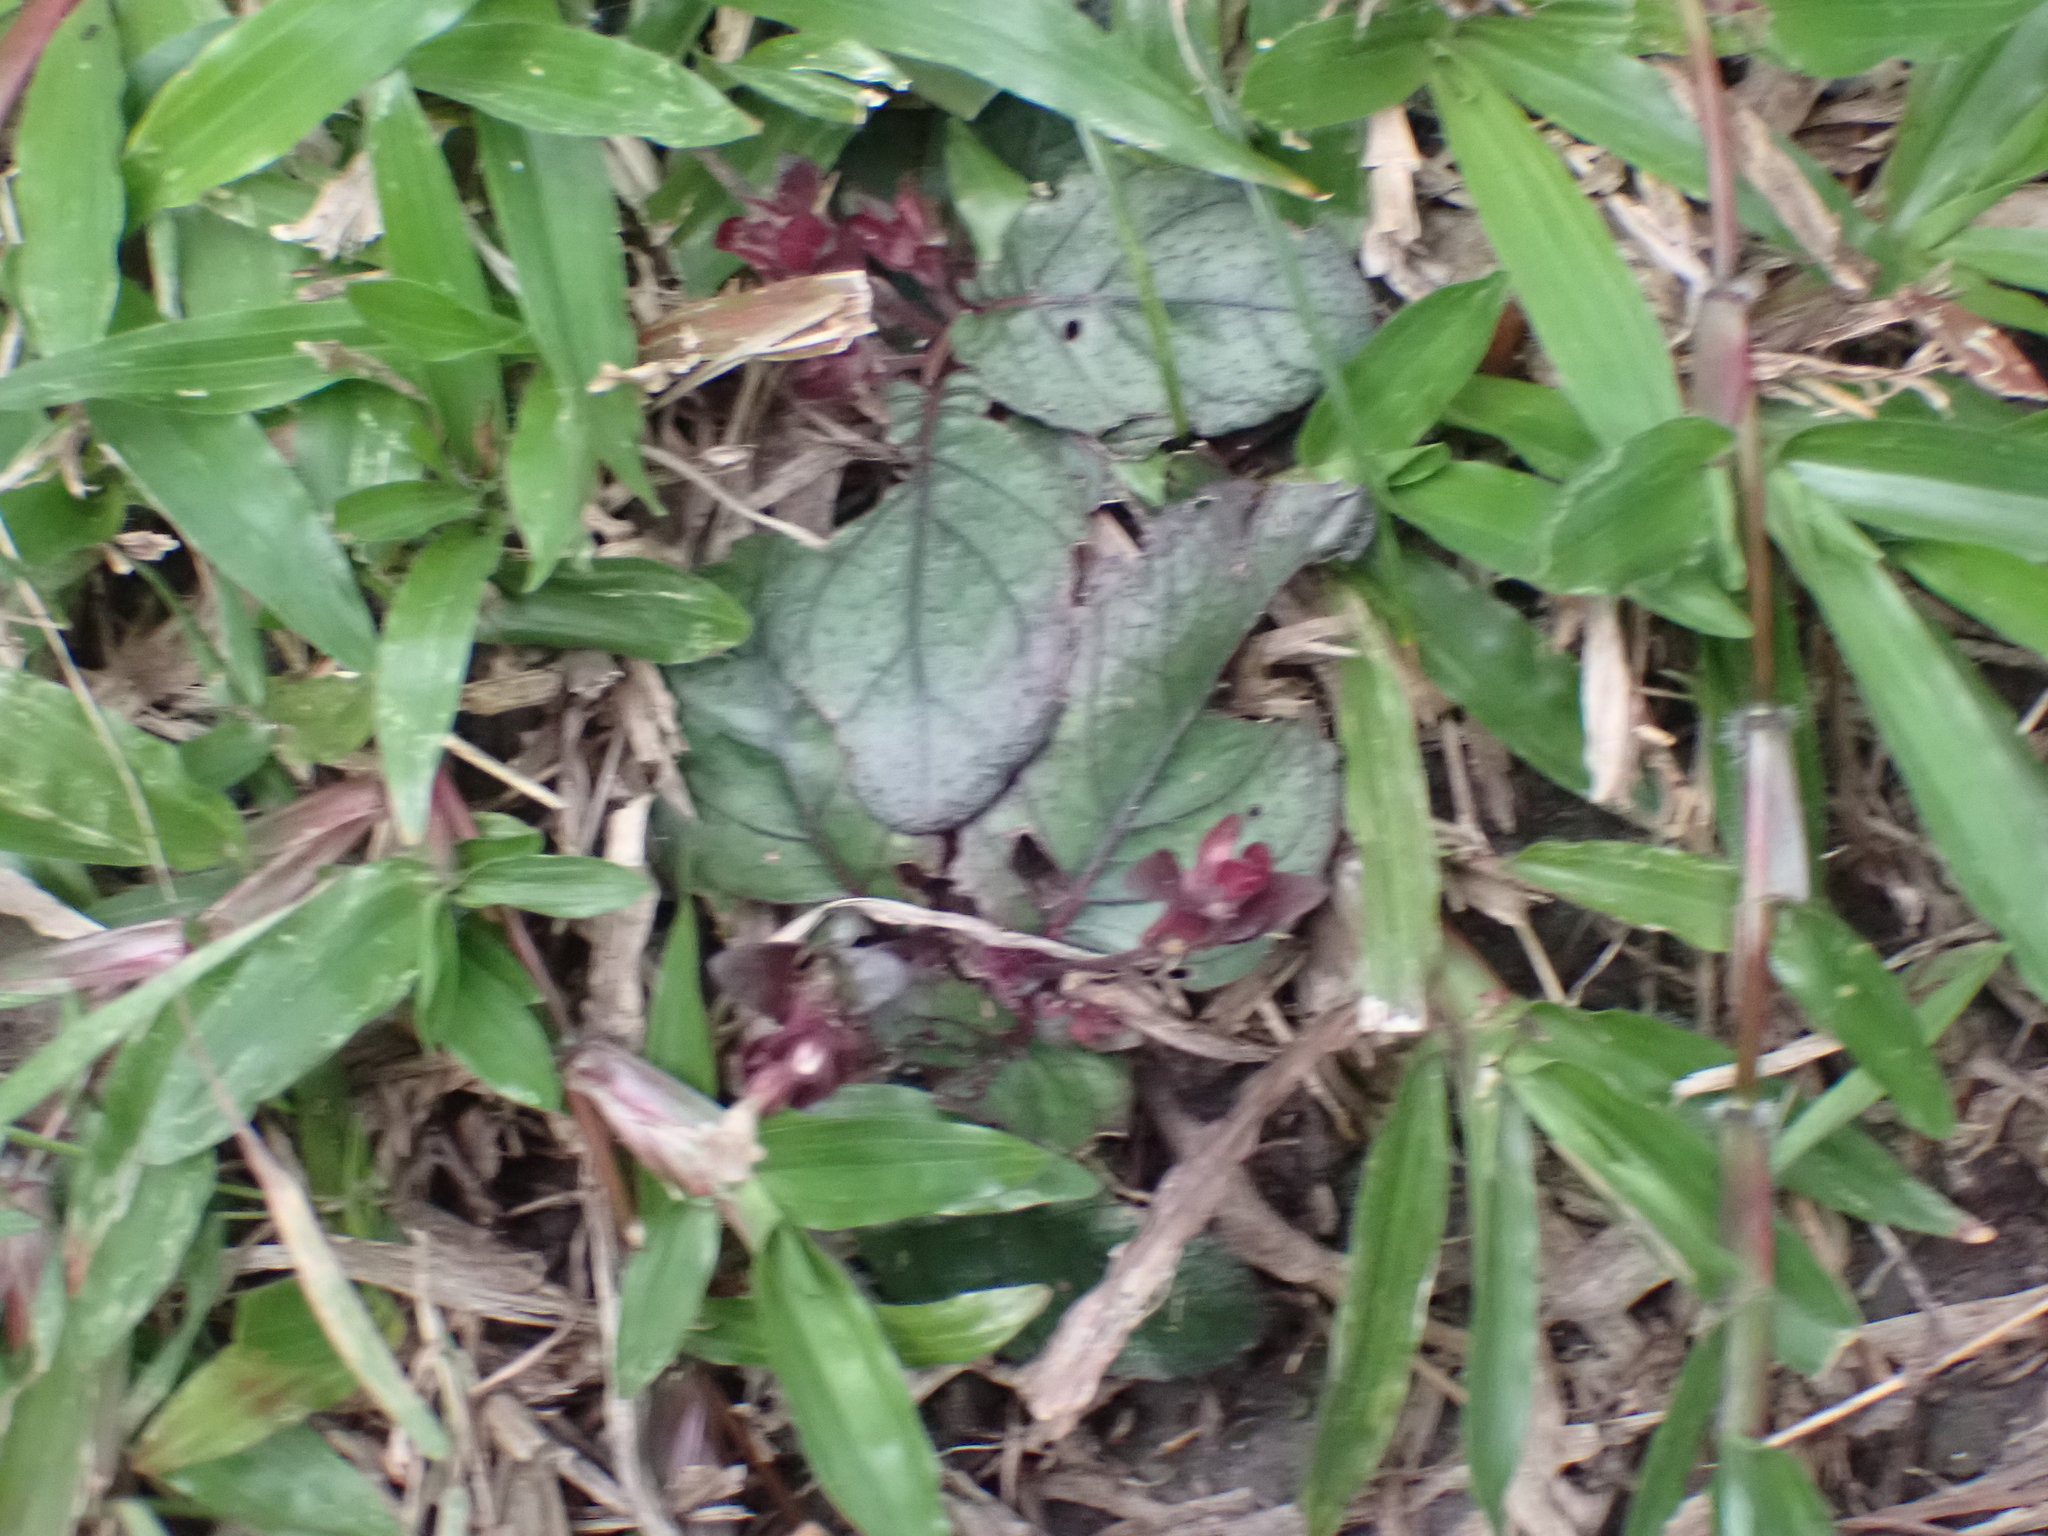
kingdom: Plantae
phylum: Tracheophyta
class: Magnoliopsida
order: Lamiales
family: Acanthaceae
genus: Strobilanthes
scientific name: Strobilanthes reptans
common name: Acanthaceae
